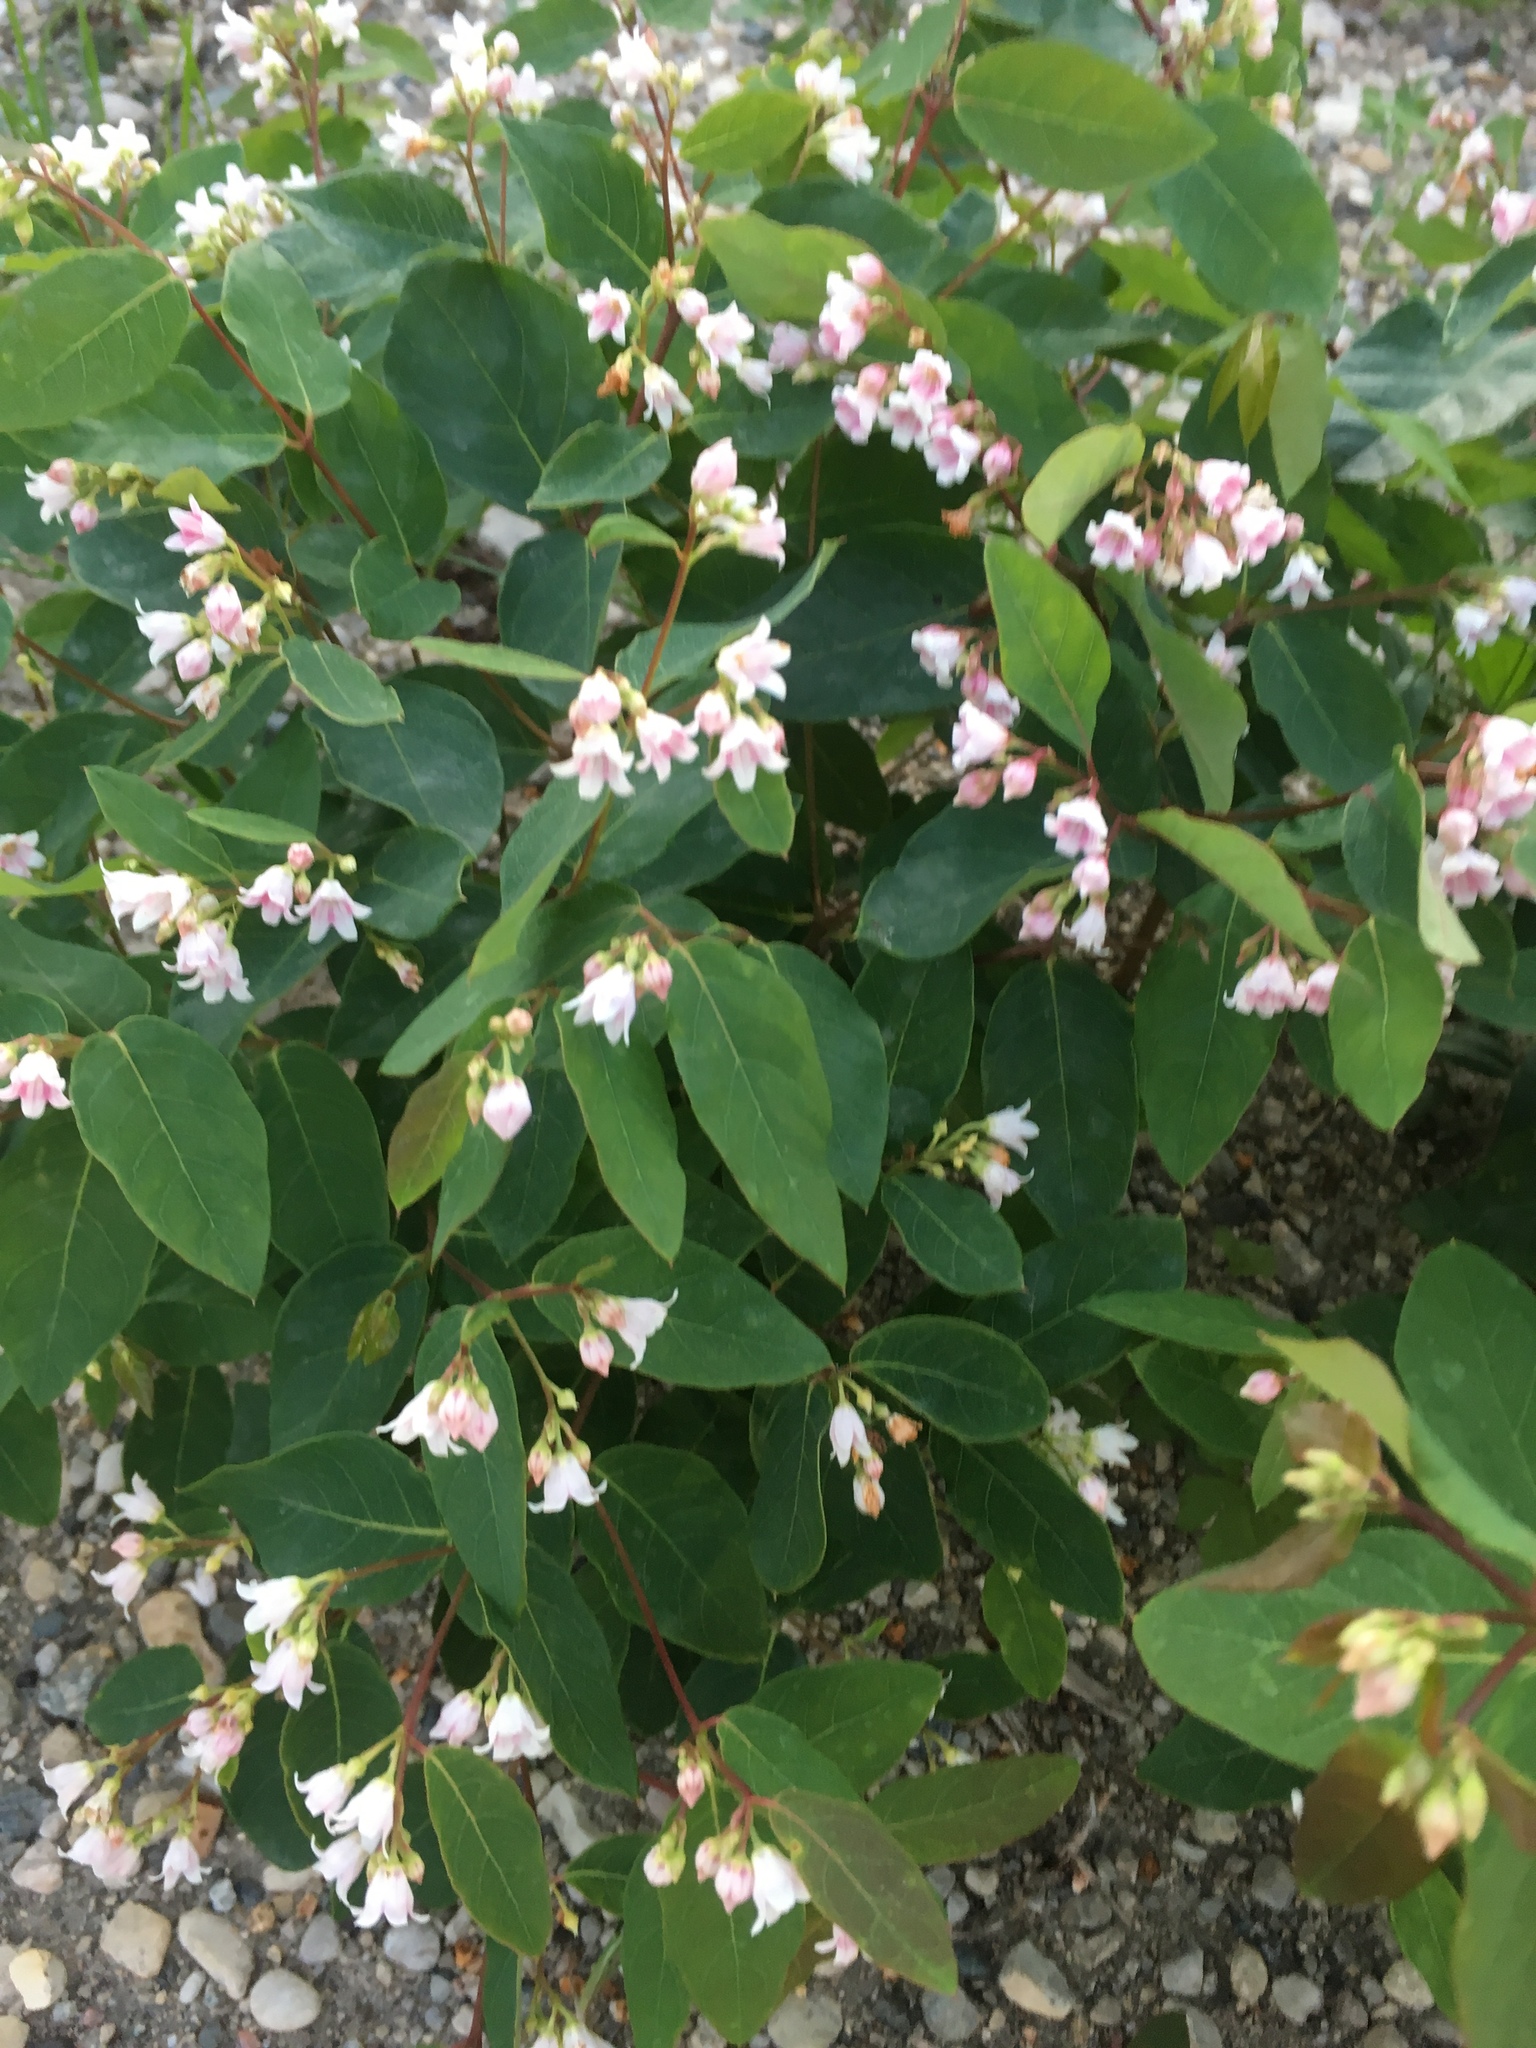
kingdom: Plantae
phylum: Tracheophyta
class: Magnoliopsida
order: Gentianales
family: Apocynaceae
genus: Apocynum
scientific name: Apocynum androsaemifolium
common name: Spreading dogbane
